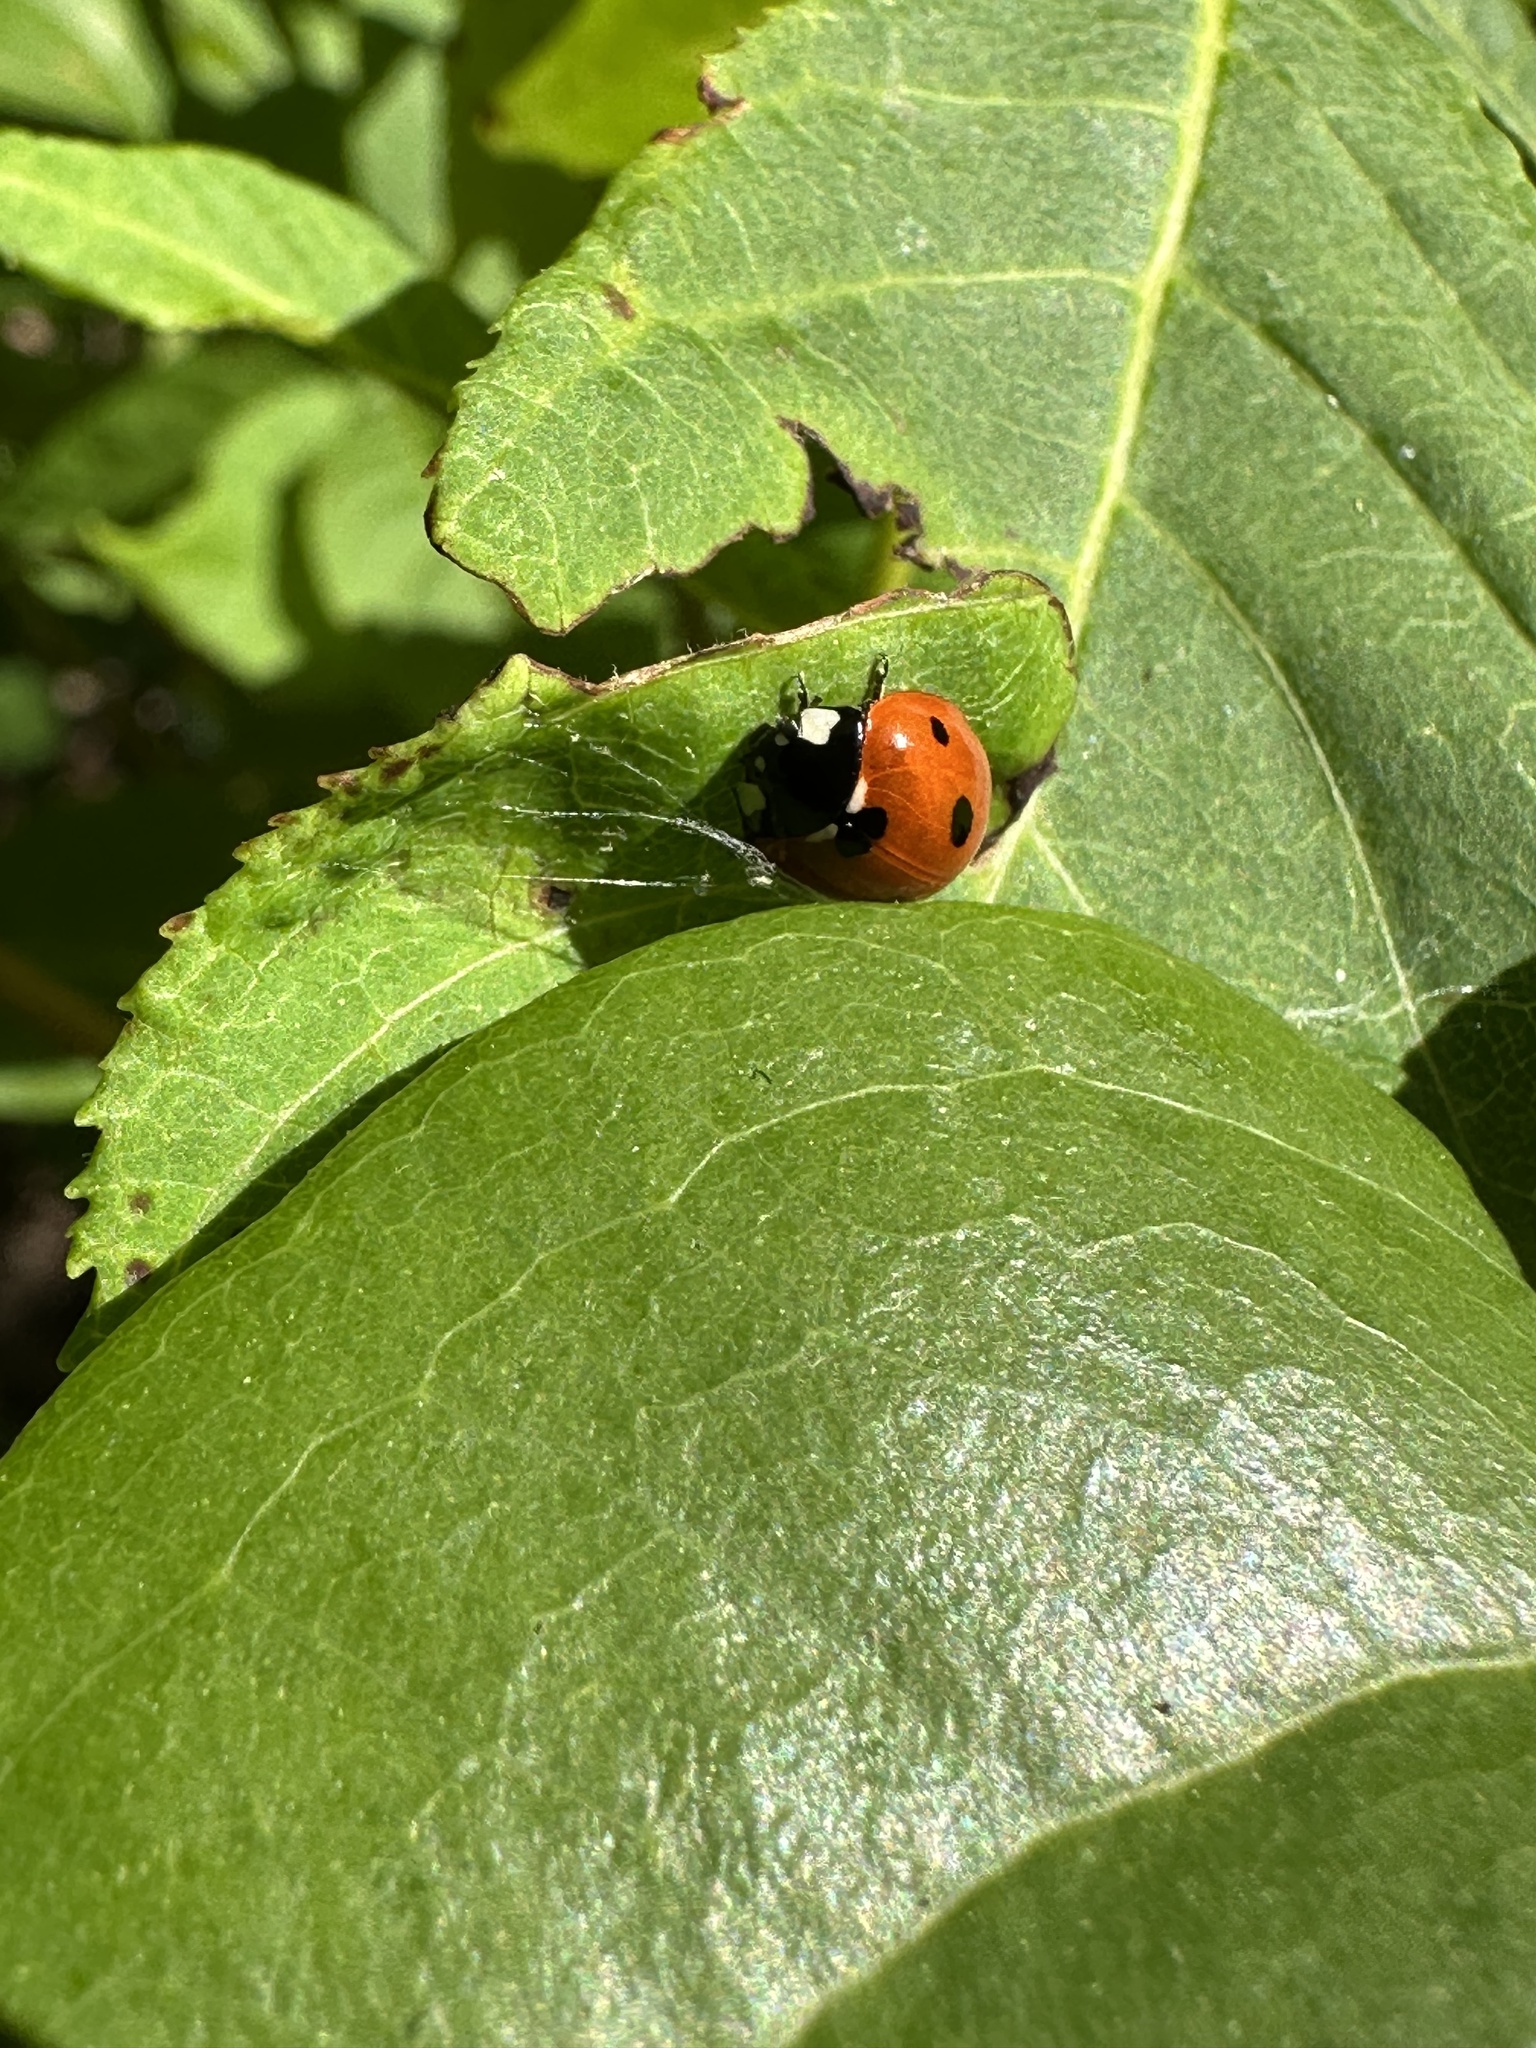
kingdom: Animalia
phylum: Arthropoda
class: Insecta
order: Coleoptera
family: Coccinellidae
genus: Coccinella
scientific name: Coccinella septempunctata
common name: Sevenspotted lady beetle
